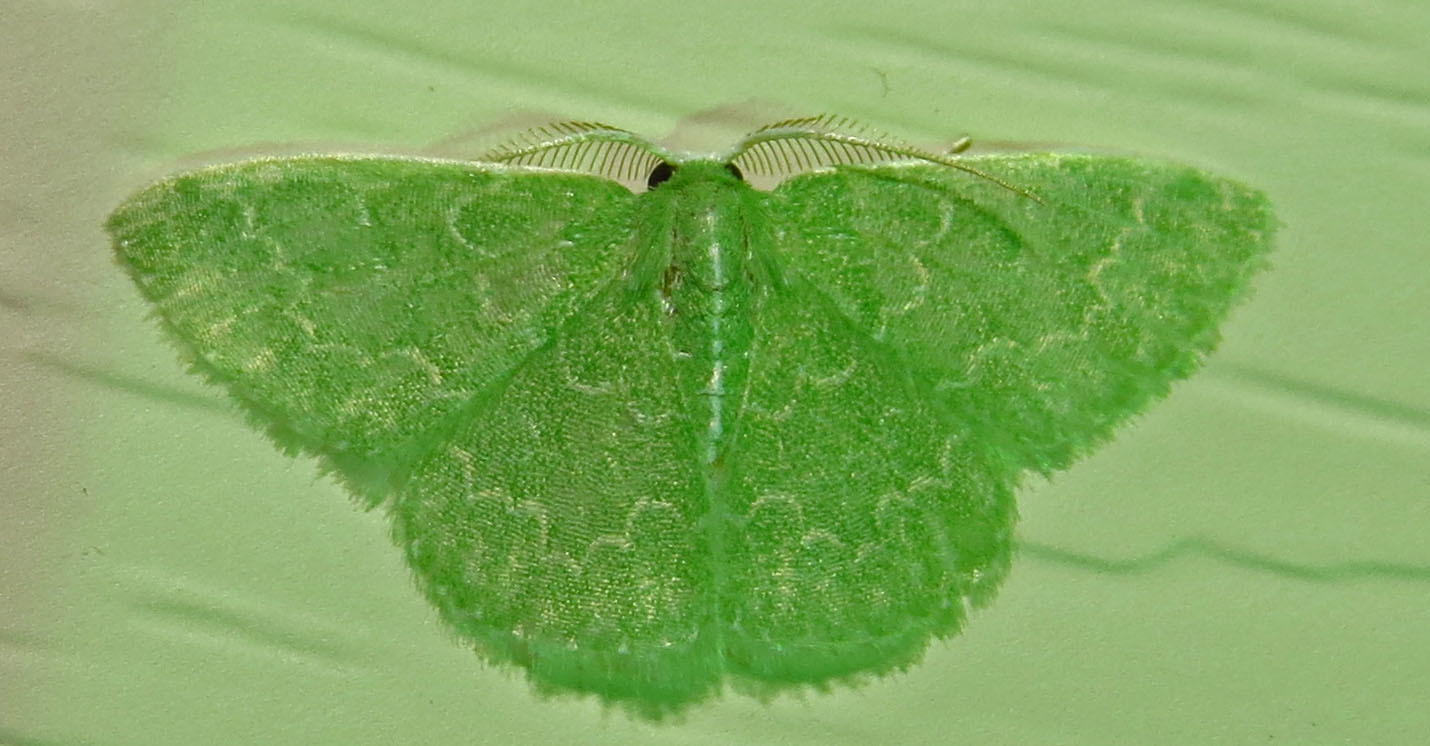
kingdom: Animalia
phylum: Arthropoda
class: Insecta
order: Lepidoptera
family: Geometridae
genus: Synchlora
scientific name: Synchlora frondaria
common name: Southern emerald
